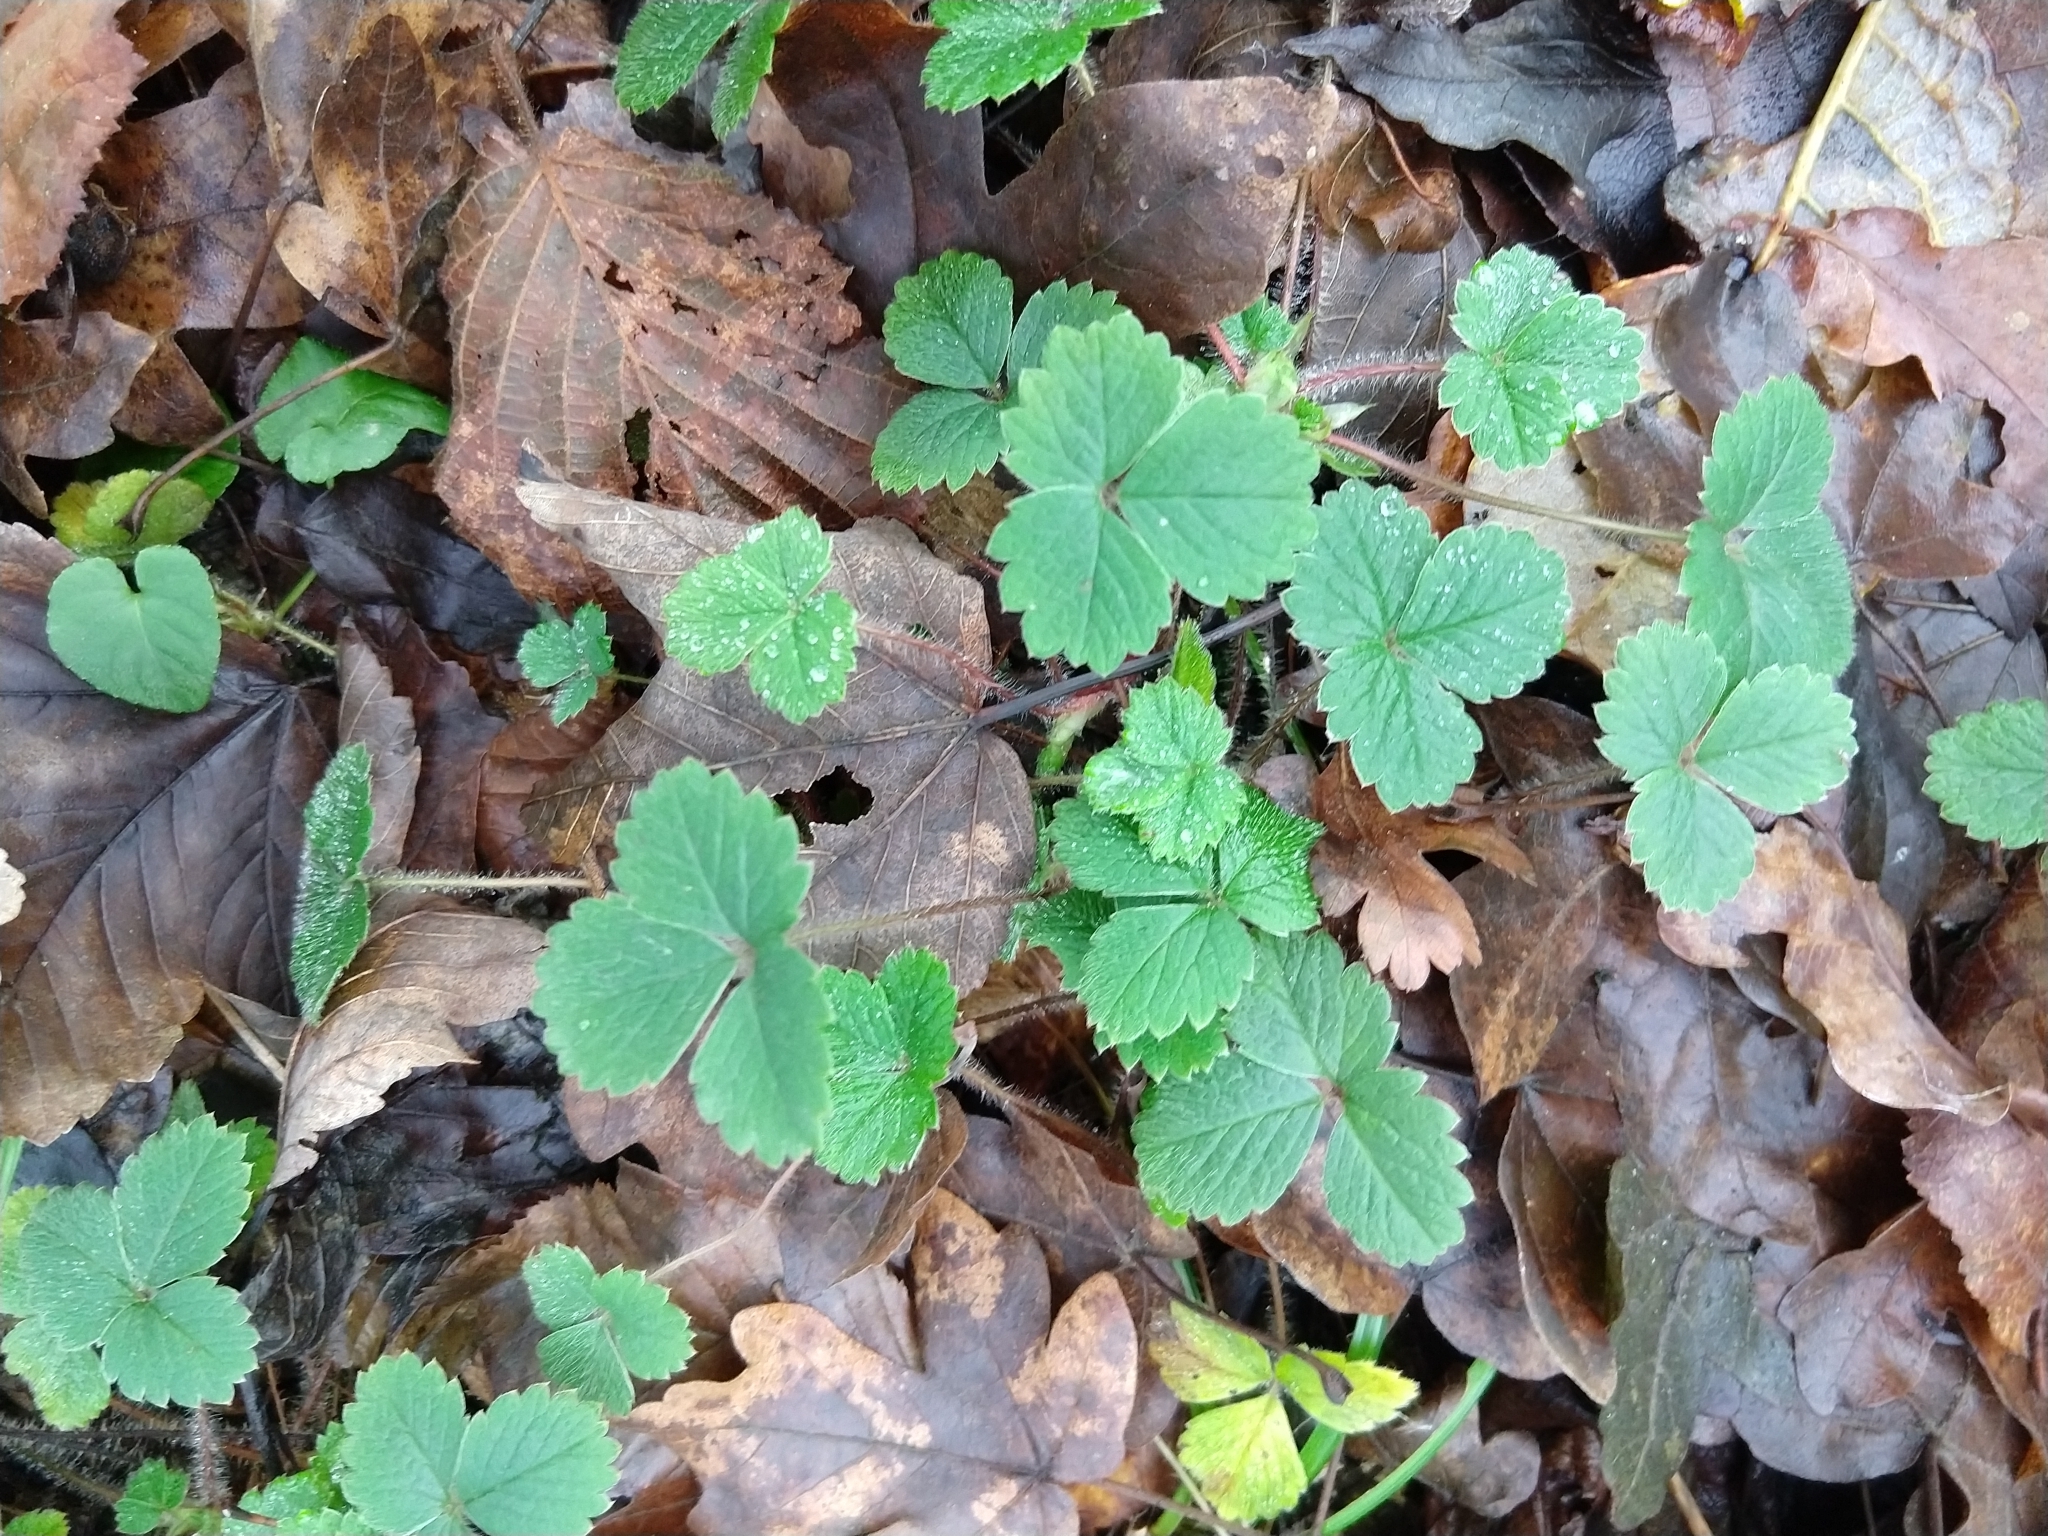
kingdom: Plantae
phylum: Tracheophyta
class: Magnoliopsida
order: Rosales
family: Rosaceae
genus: Potentilla
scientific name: Potentilla sterilis
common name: Barren strawberry
